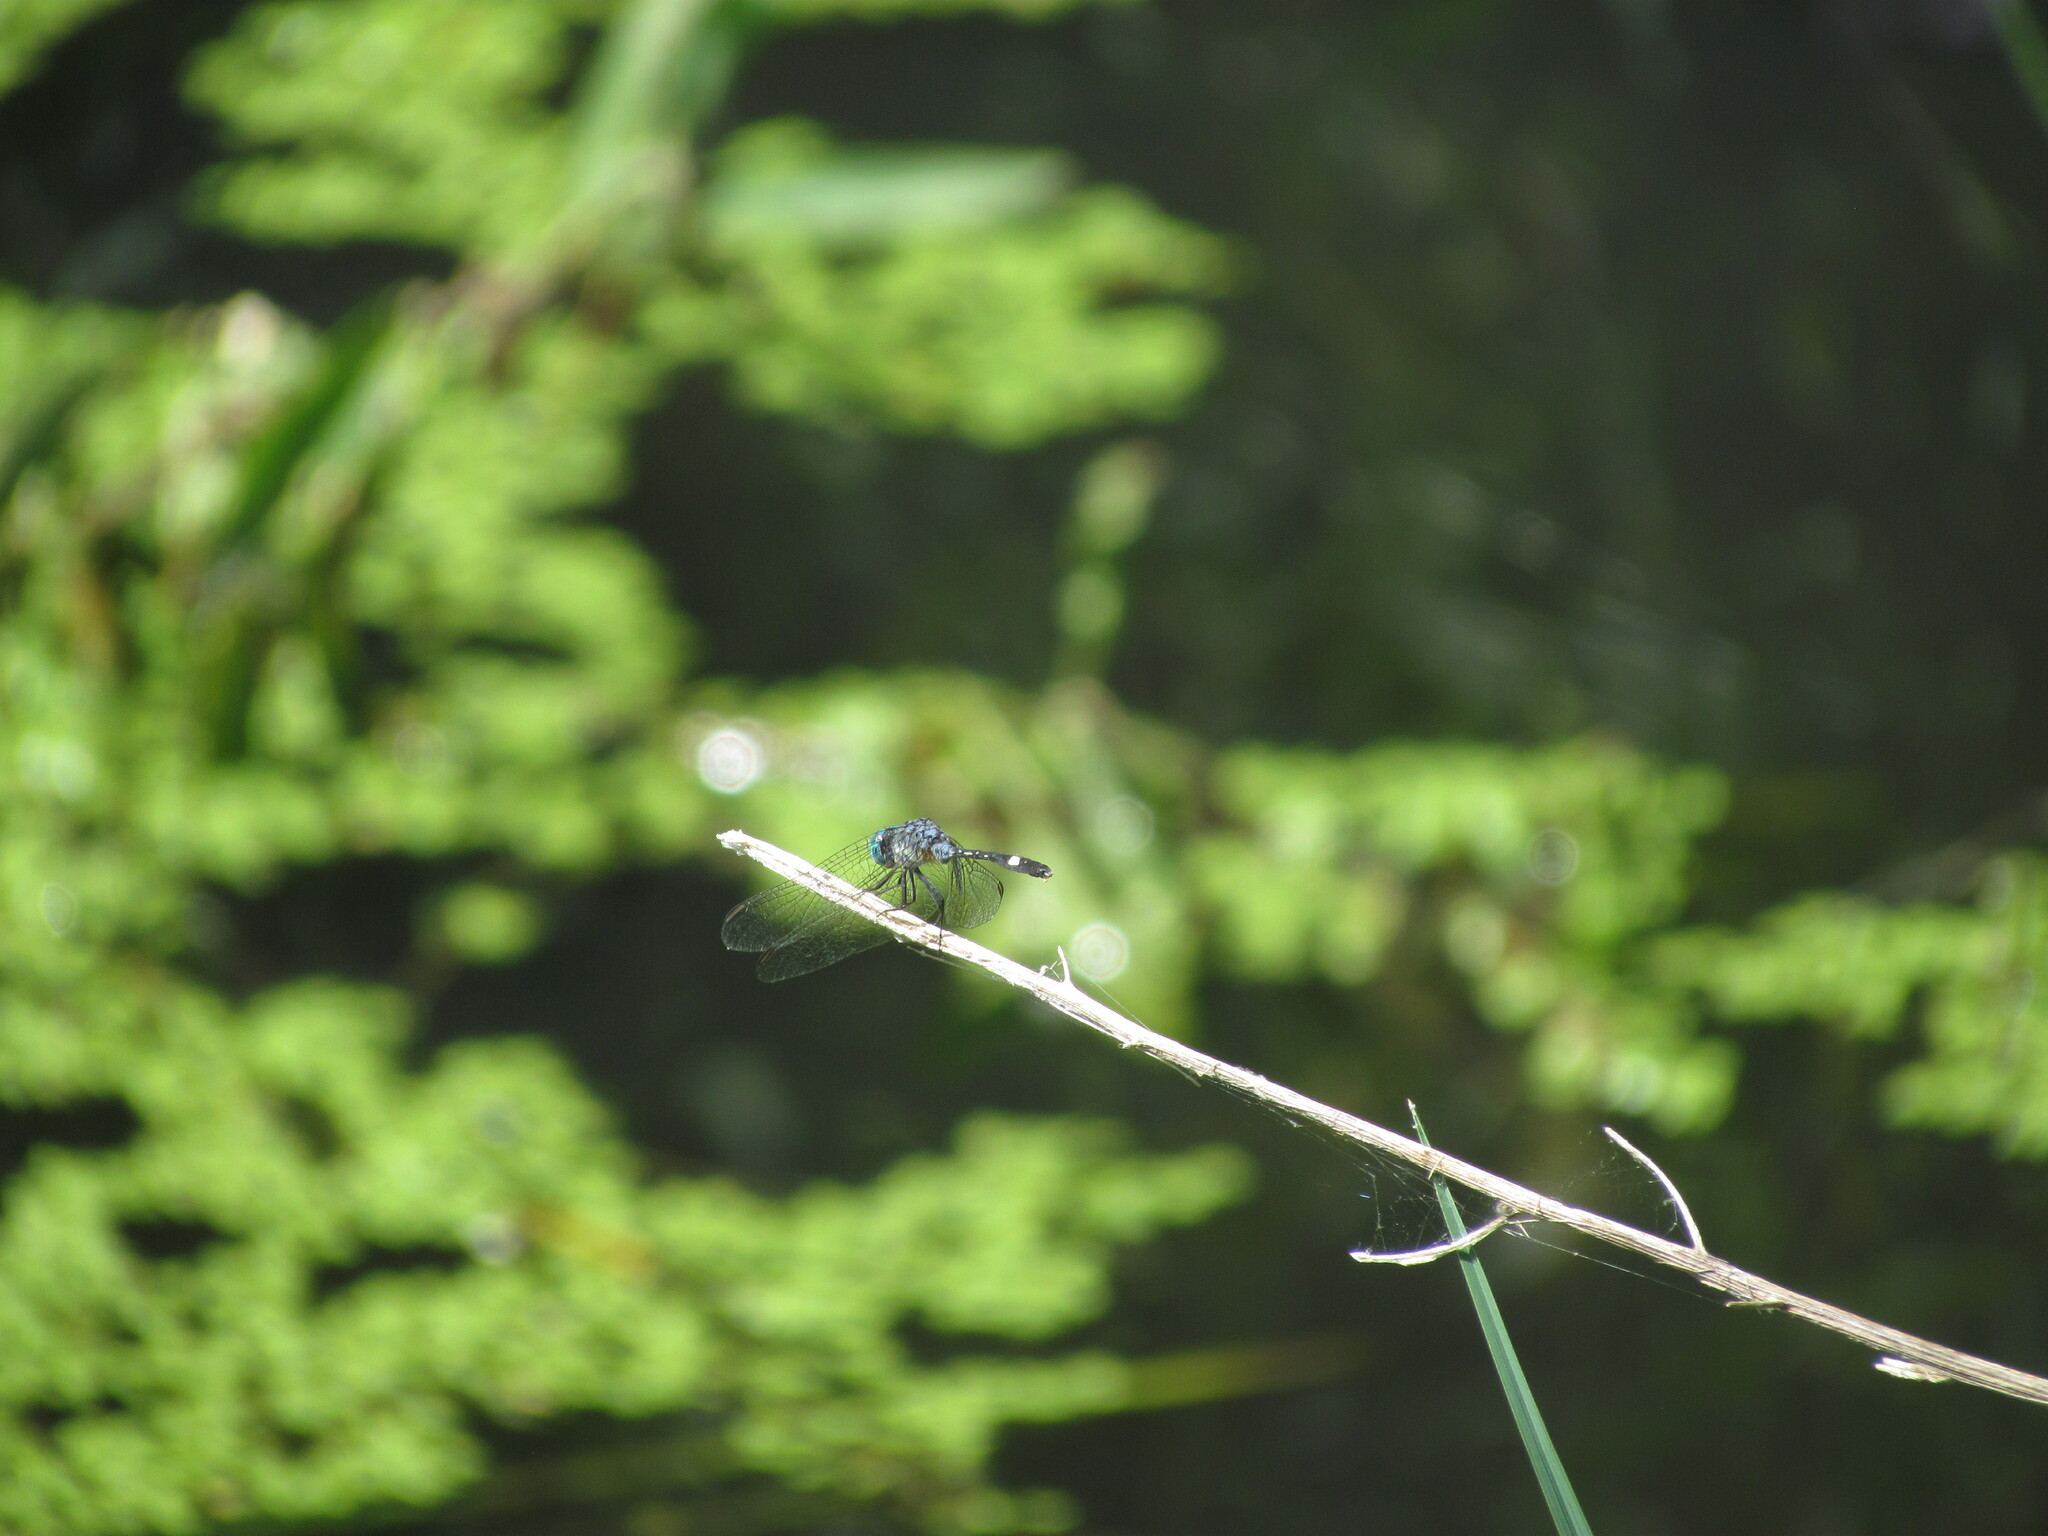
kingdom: Animalia
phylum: Arthropoda
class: Insecta
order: Odonata
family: Libellulidae
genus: Micrathyria
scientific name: Micrathyria longifasciata
